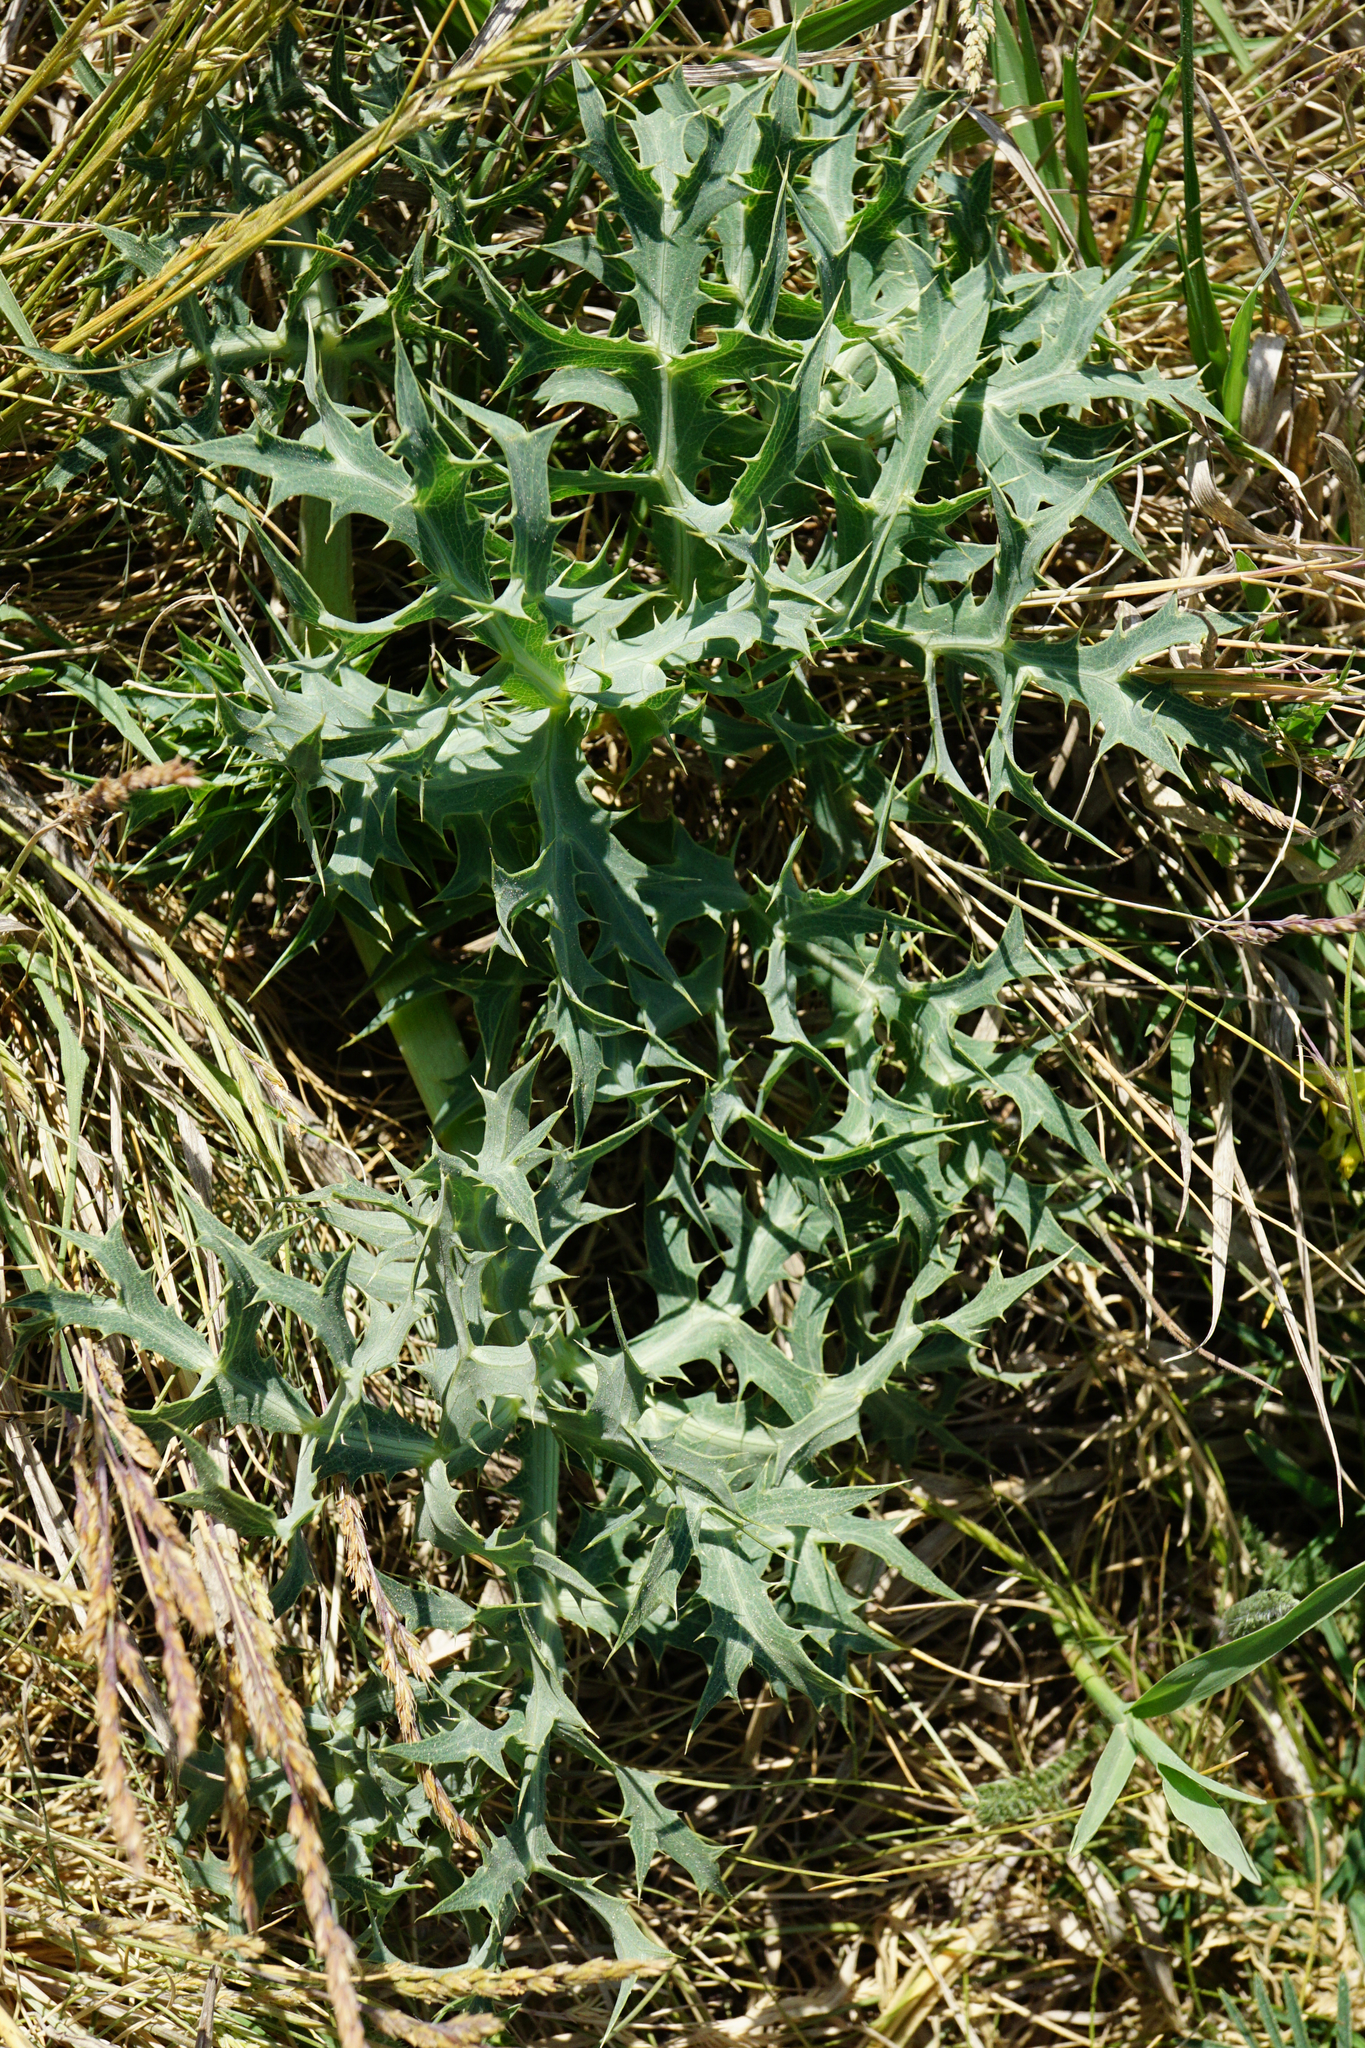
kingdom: Plantae
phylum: Tracheophyta
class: Magnoliopsida
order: Apiales
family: Apiaceae
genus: Eryngium
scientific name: Eryngium campestre
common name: Field eryngo
